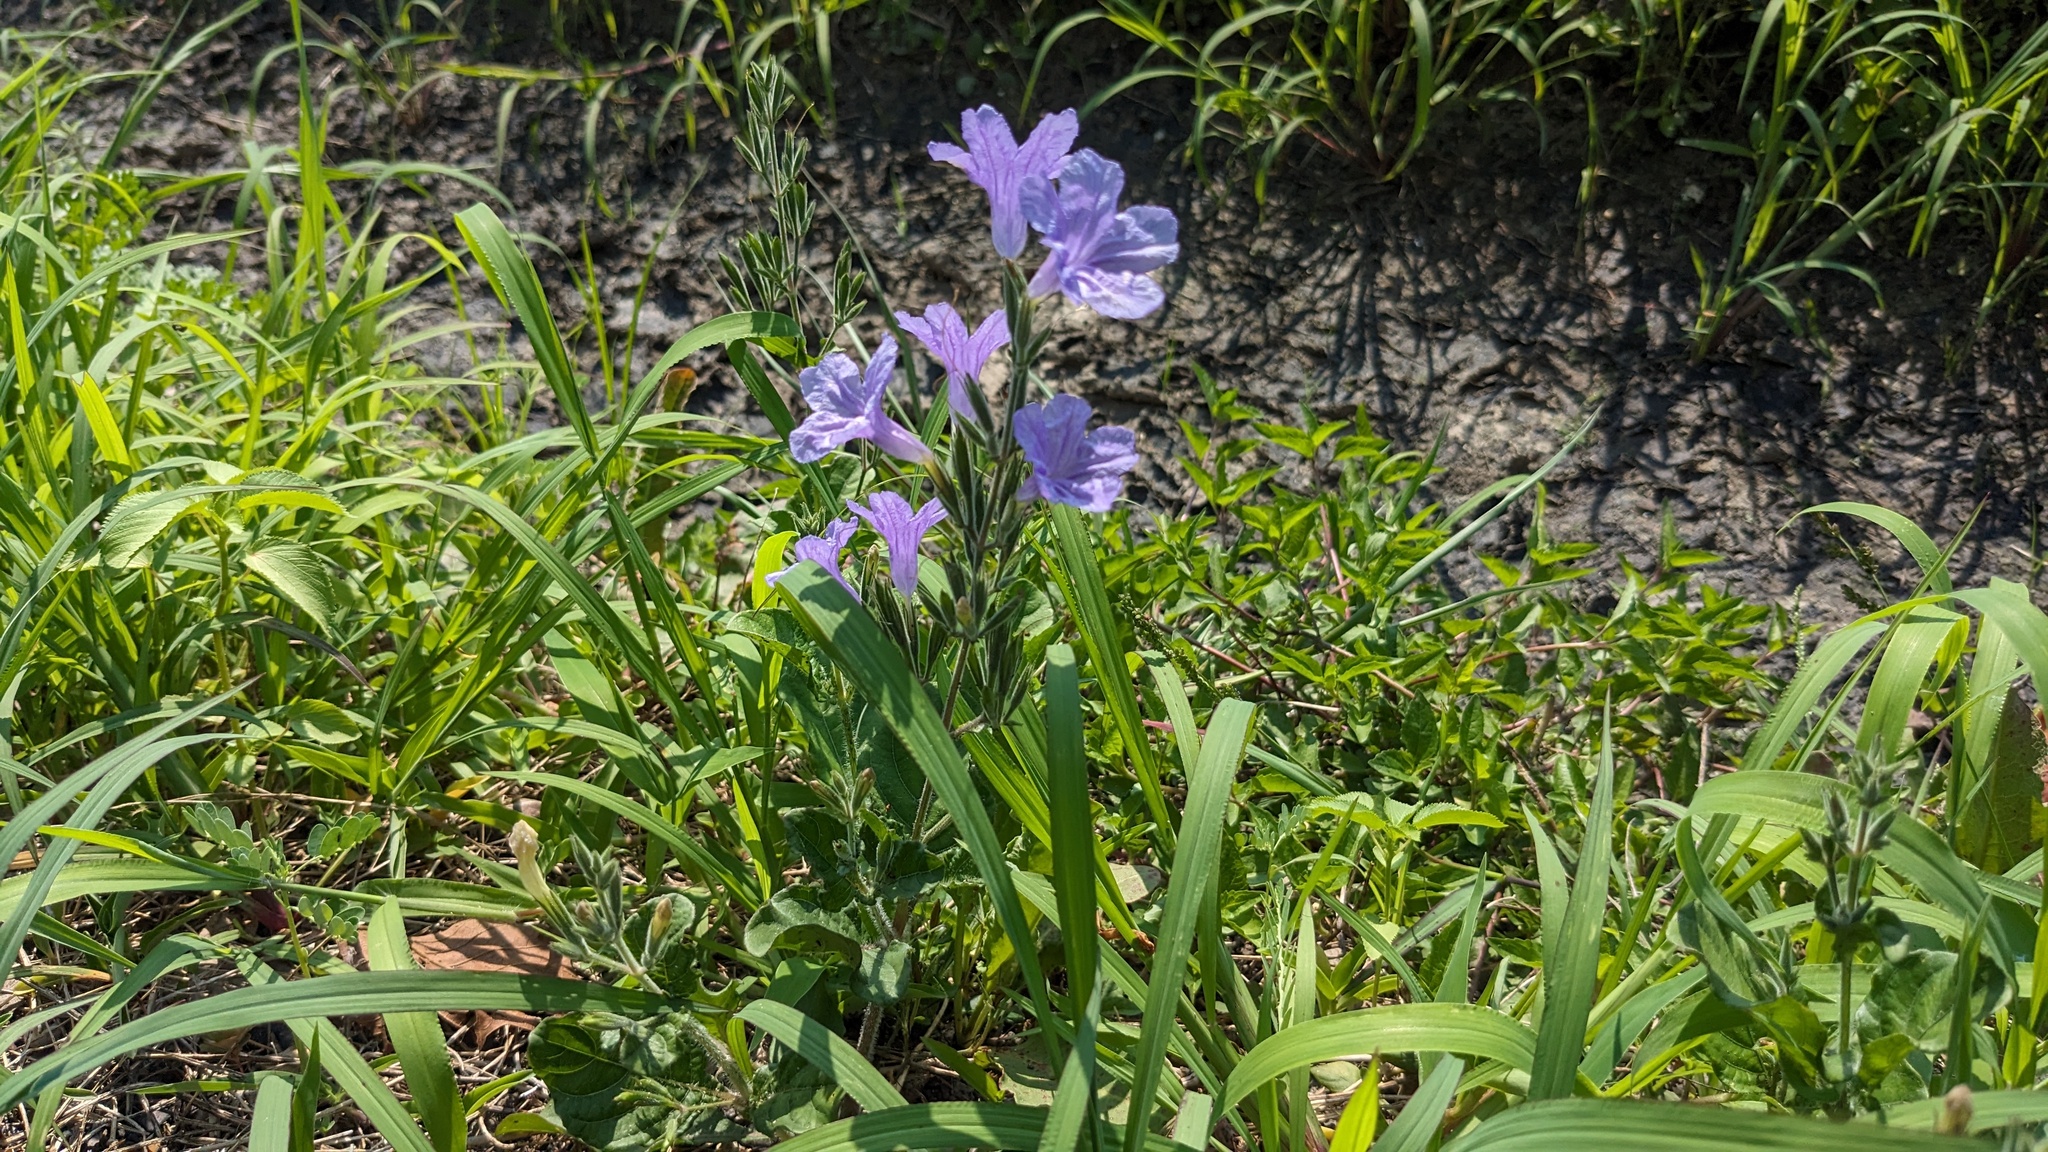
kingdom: Plantae
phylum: Tracheophyta
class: Magnoliopsida
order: Lamiales
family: Acanthaceae
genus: Ruellia
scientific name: Ruellia ciliatiflora
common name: Hairyflower wild petunia
